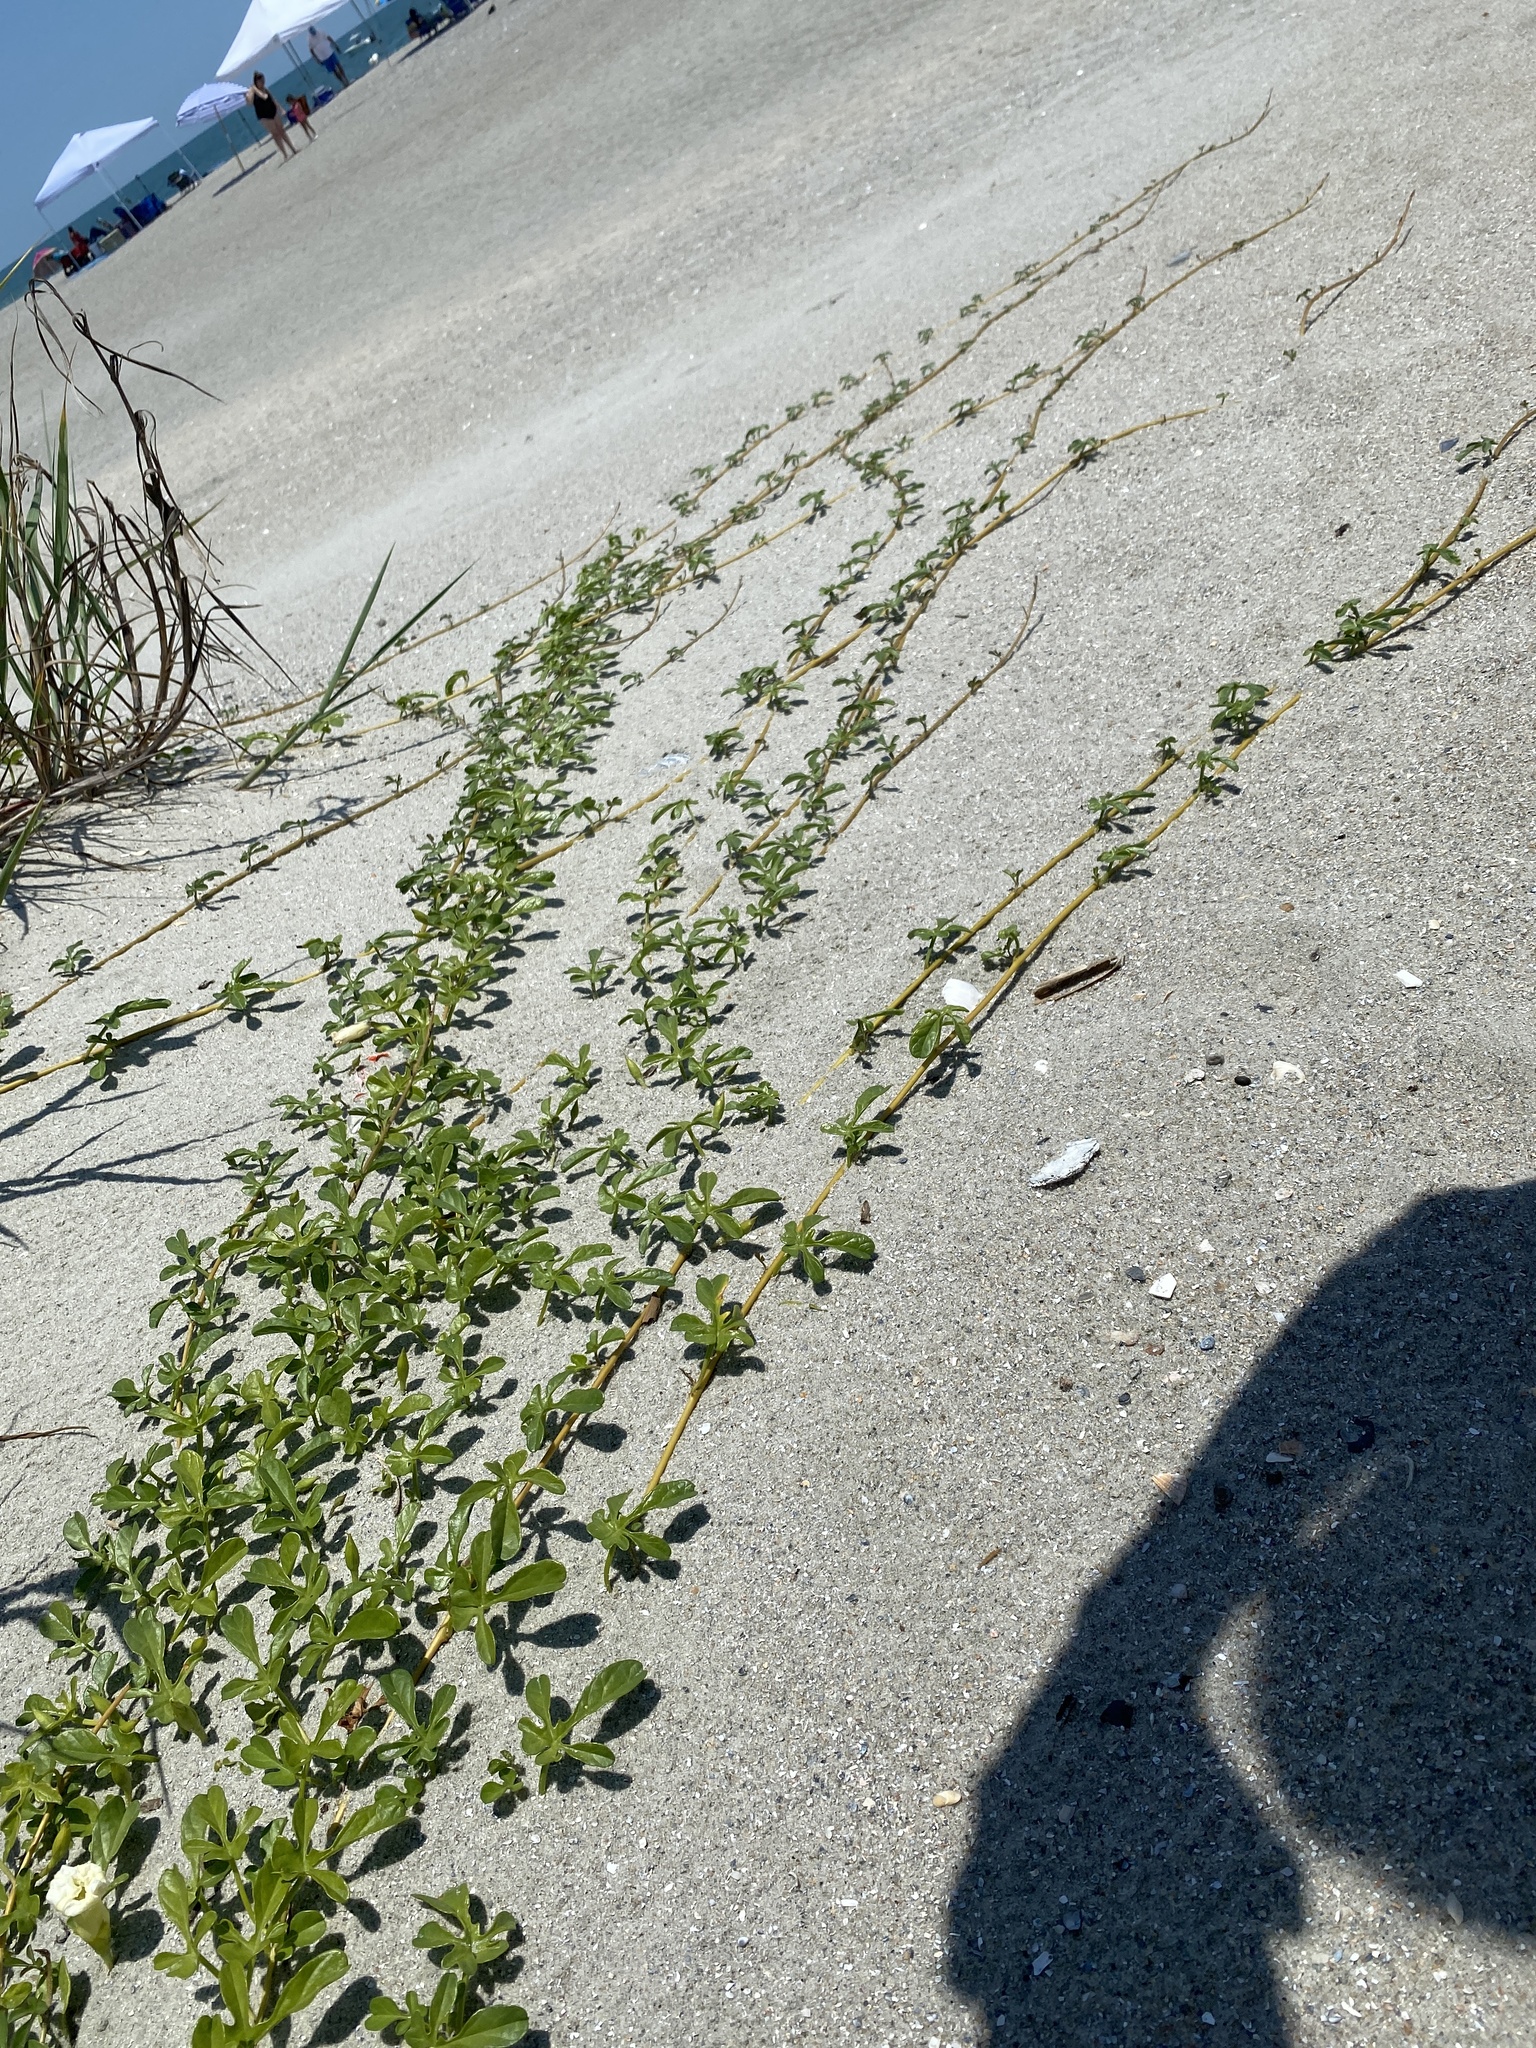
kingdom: Plantae
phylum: Tracheophyta
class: Magnoliopsida
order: Solanales
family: Convolvulaceae
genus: Ipomoea
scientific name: Ipomoea imperati
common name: Fiddle-leaf morning-glory
